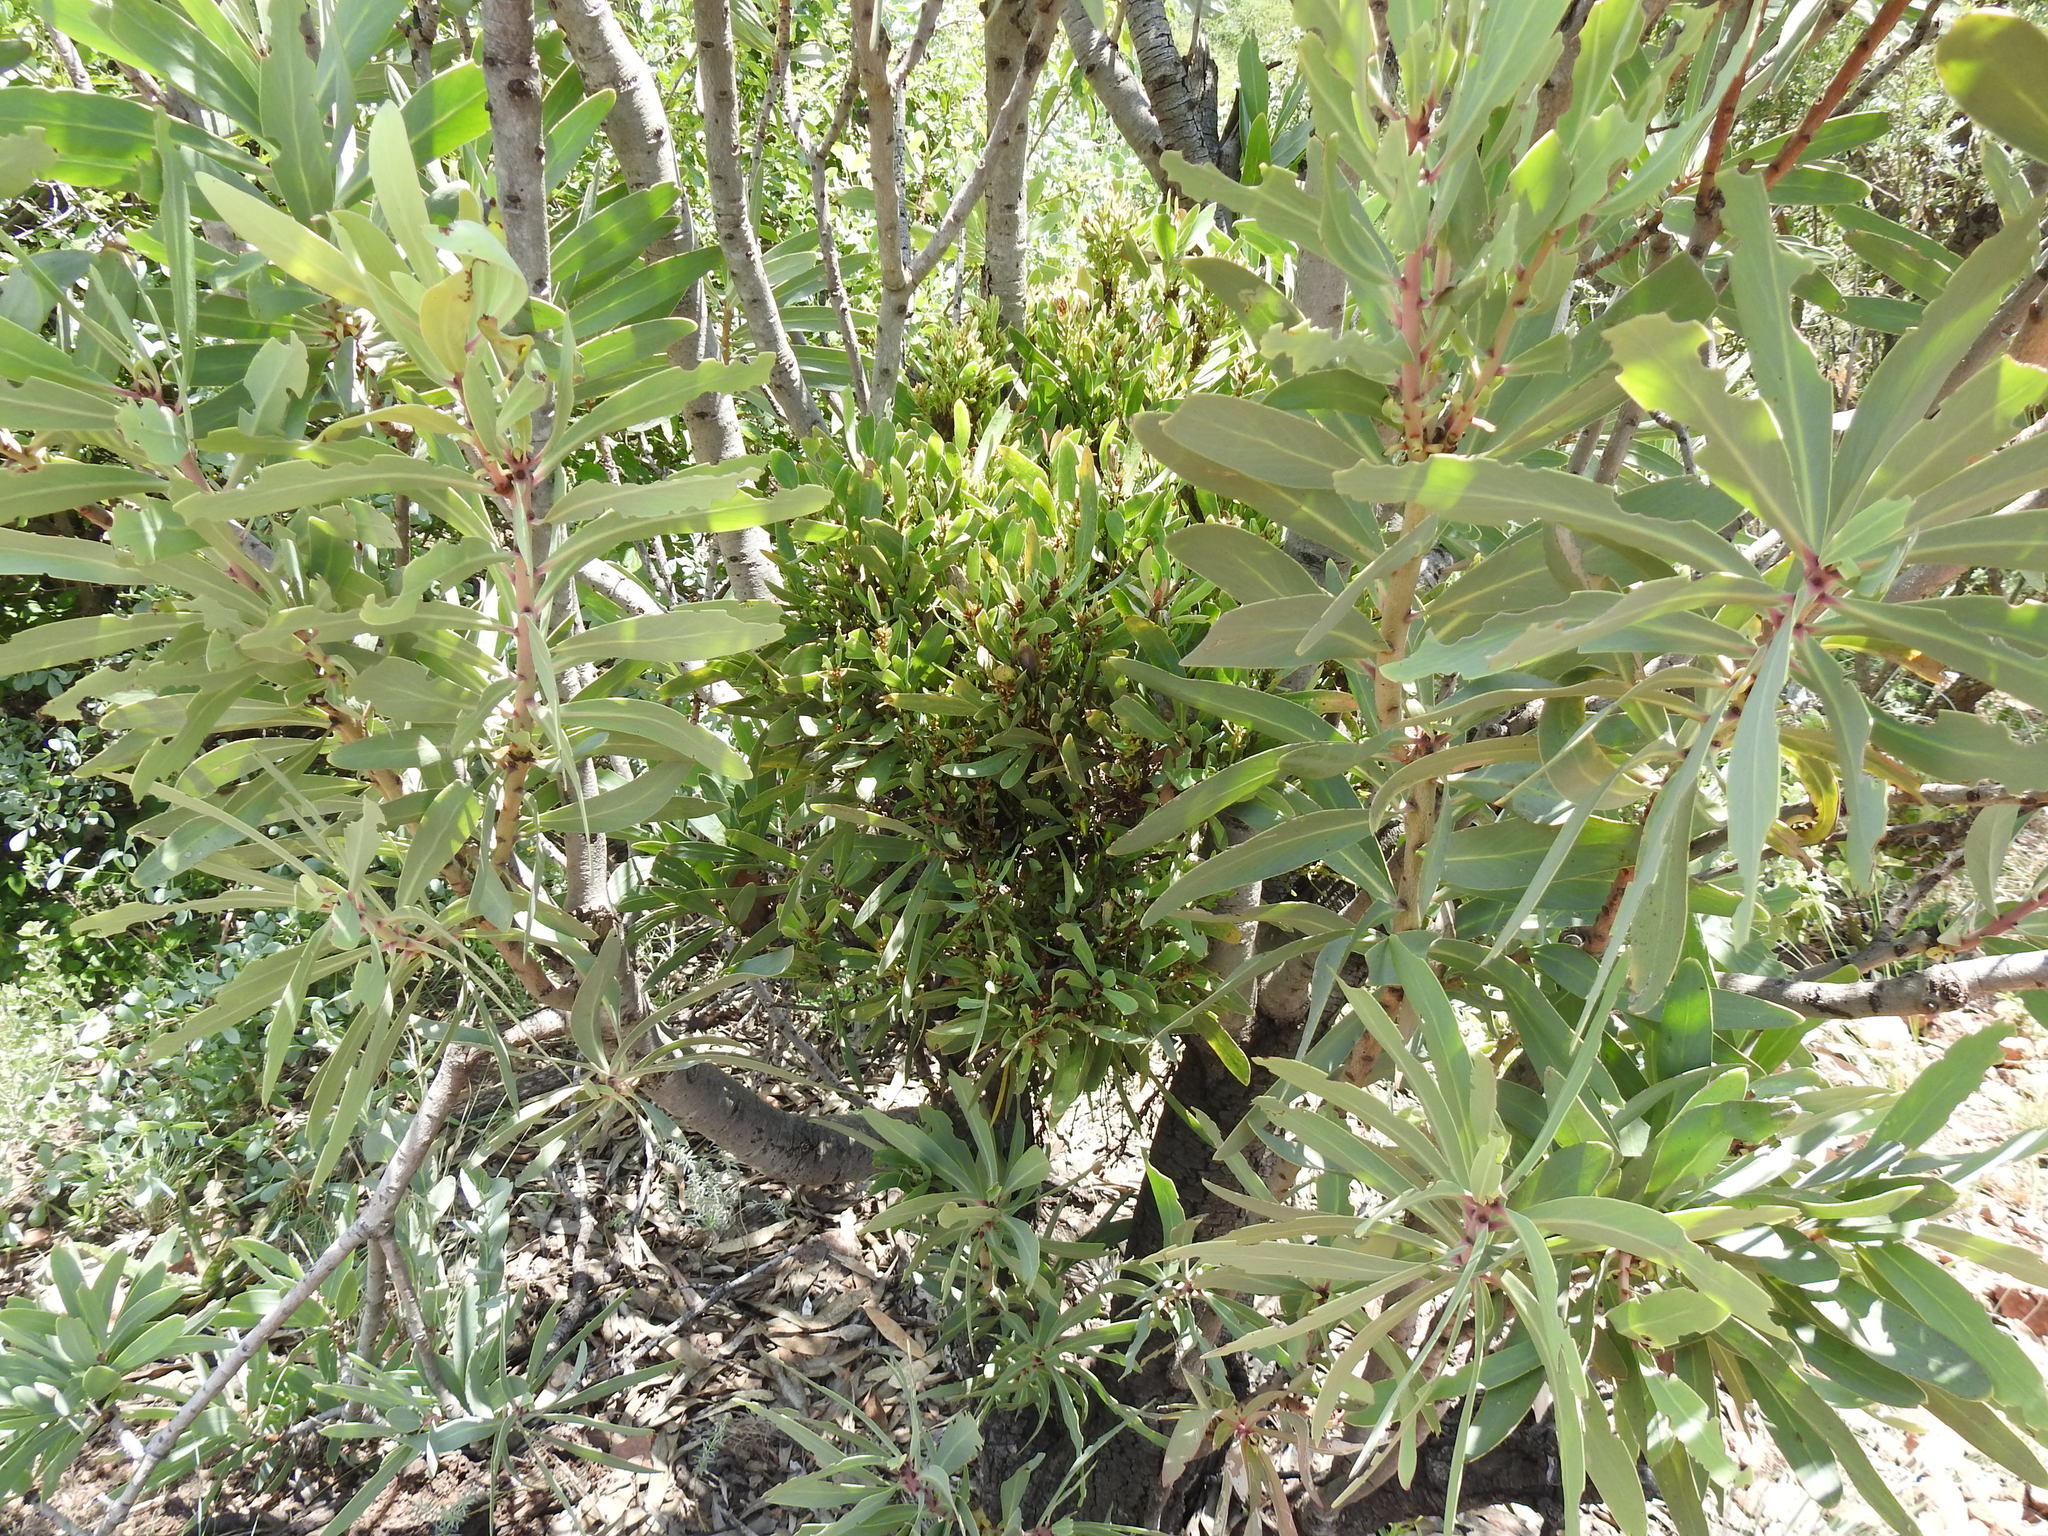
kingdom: Bacteria
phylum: Firmicutes
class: Bacilli
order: Acholeplasmatales
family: Acholeplasmataceae
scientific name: Acholeplasmataceae
